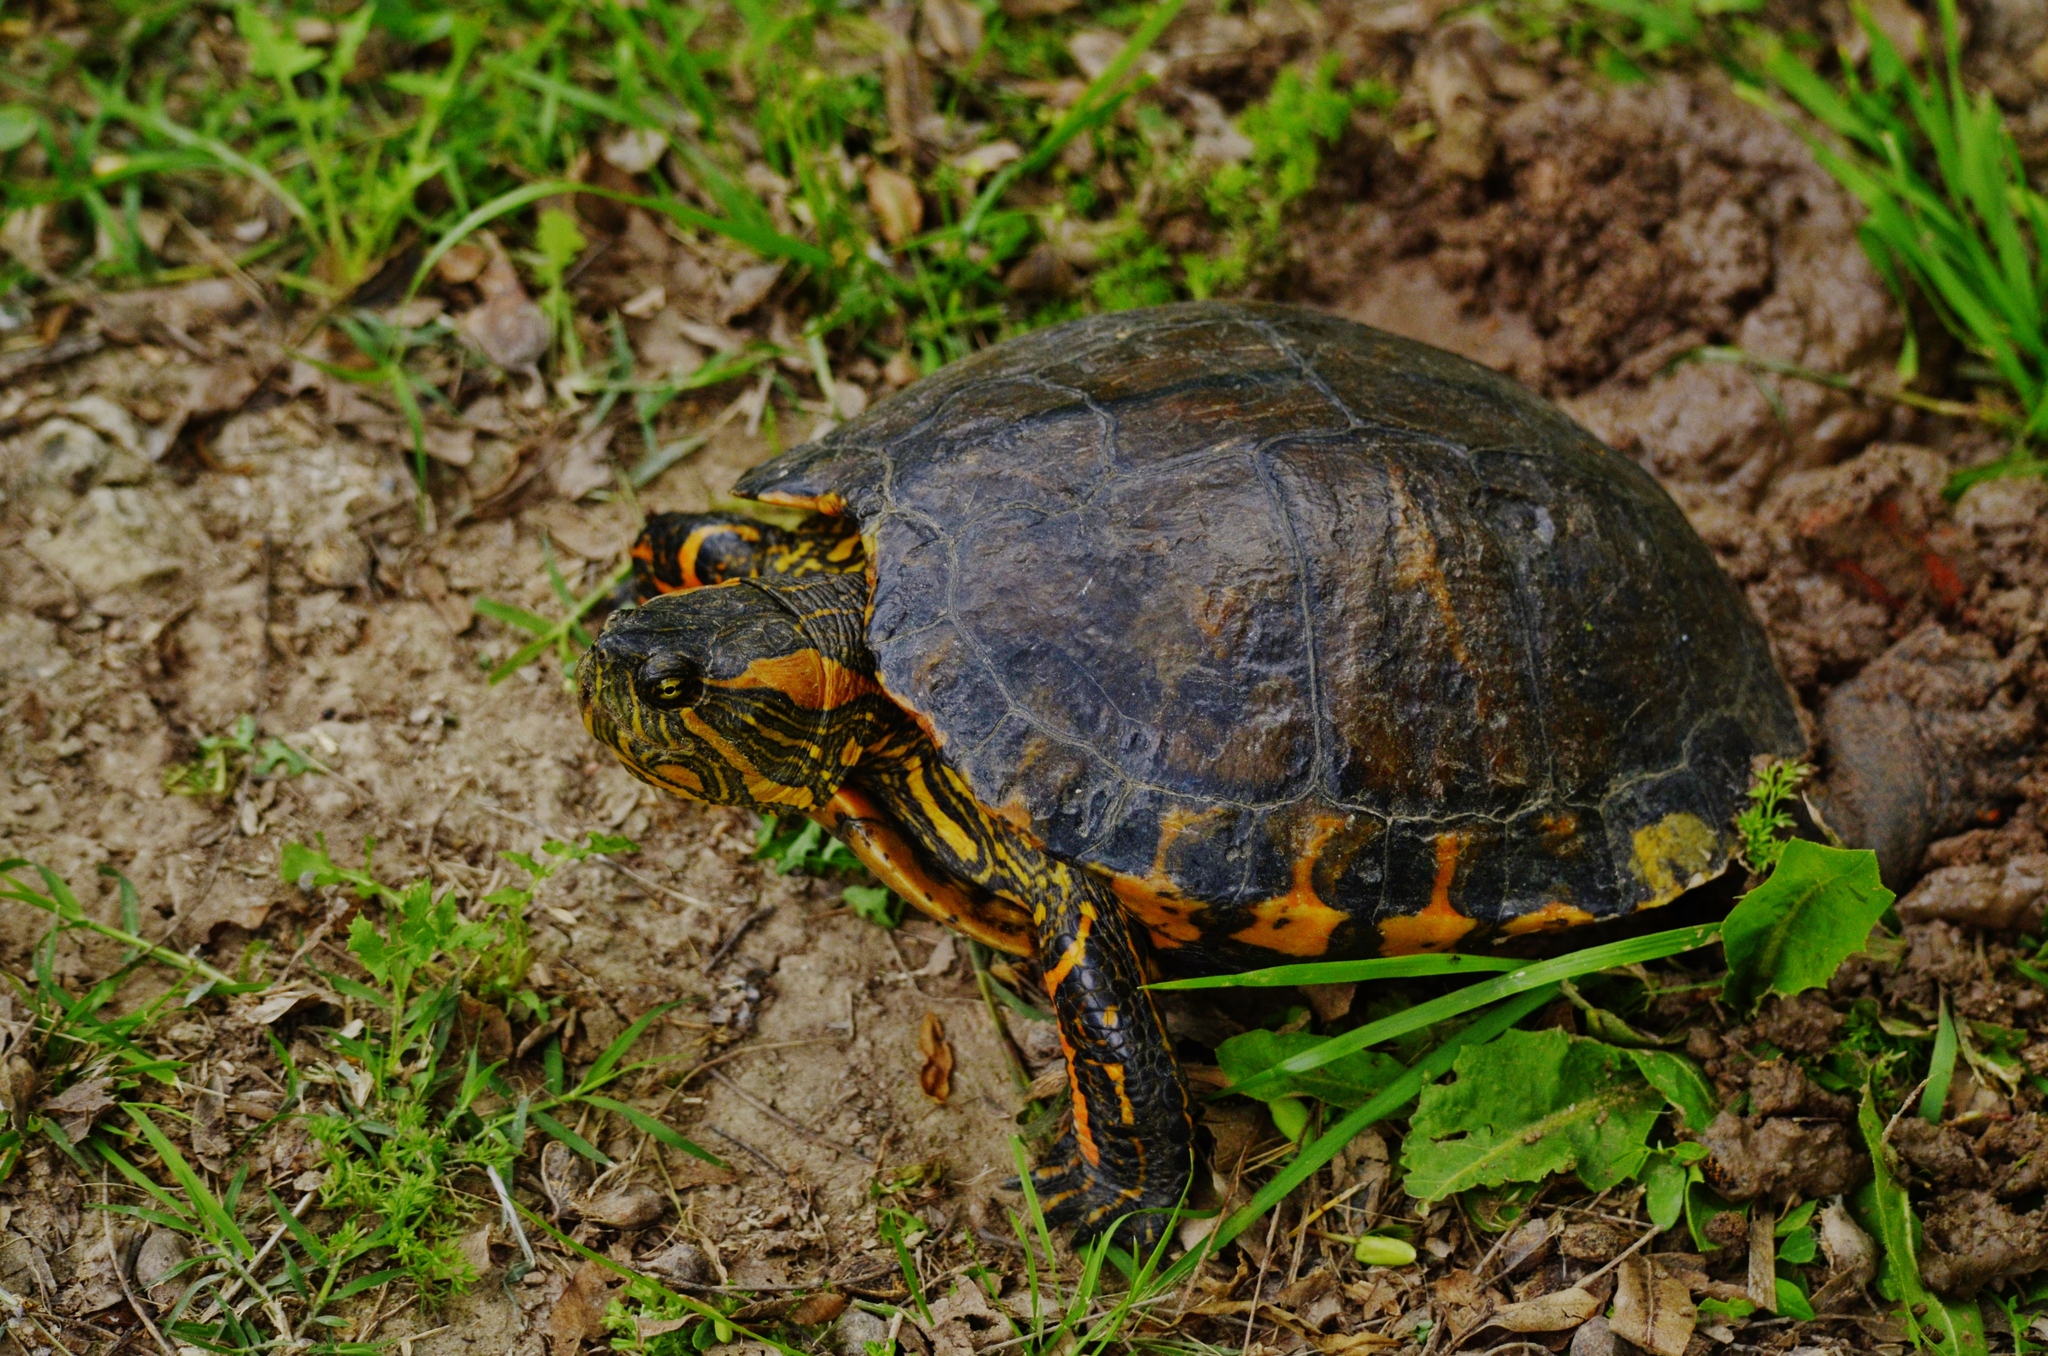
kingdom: Animalia
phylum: Chordata
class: Testudines
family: Emydidae
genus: Trachemys
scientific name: Trachemys dorbigni
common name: Black-bellied slider
